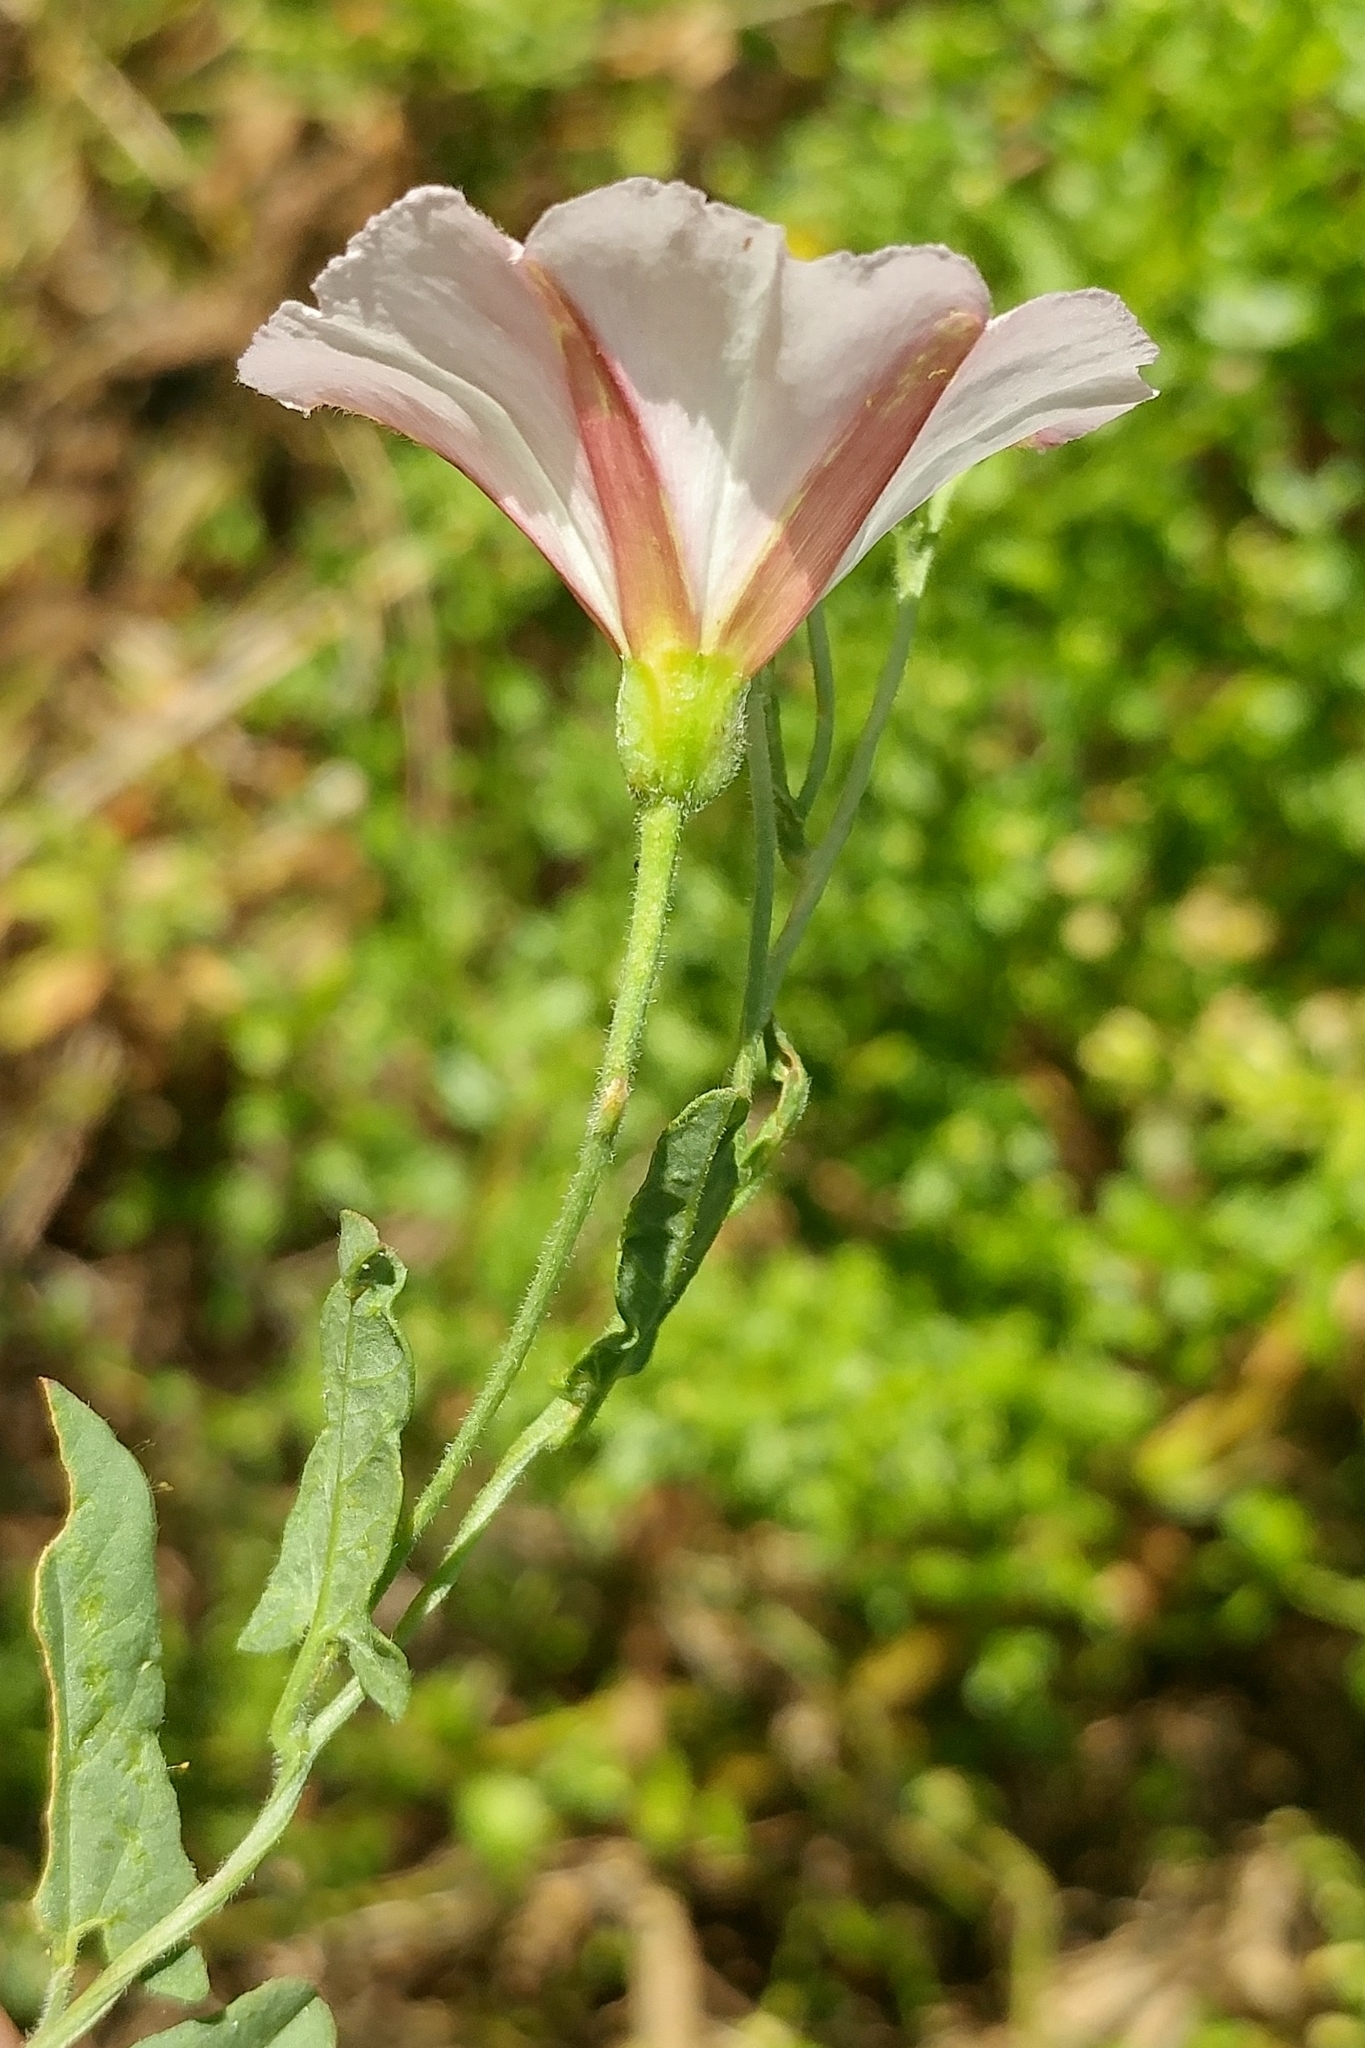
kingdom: Plantae
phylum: Tracheophyta
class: Magnoliopsida
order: Solanales
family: Convolvulaceae
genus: Convolvulus
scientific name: Convolvulus arvensis
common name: Field bindweed
